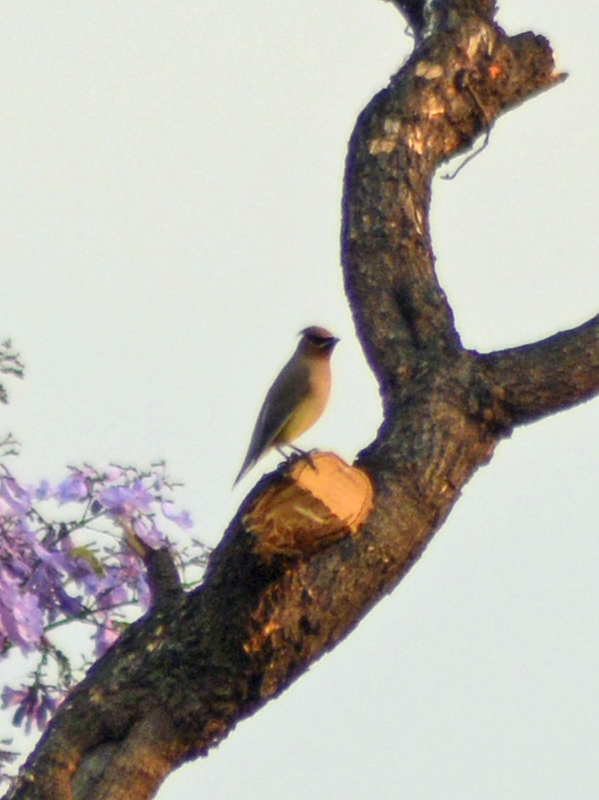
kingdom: Animalia
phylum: Chordata
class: Aves
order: Passeriformes
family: Bombycillidae
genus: Bombycilla
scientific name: Bombycilla cedrorum
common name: Cedar waxwing
